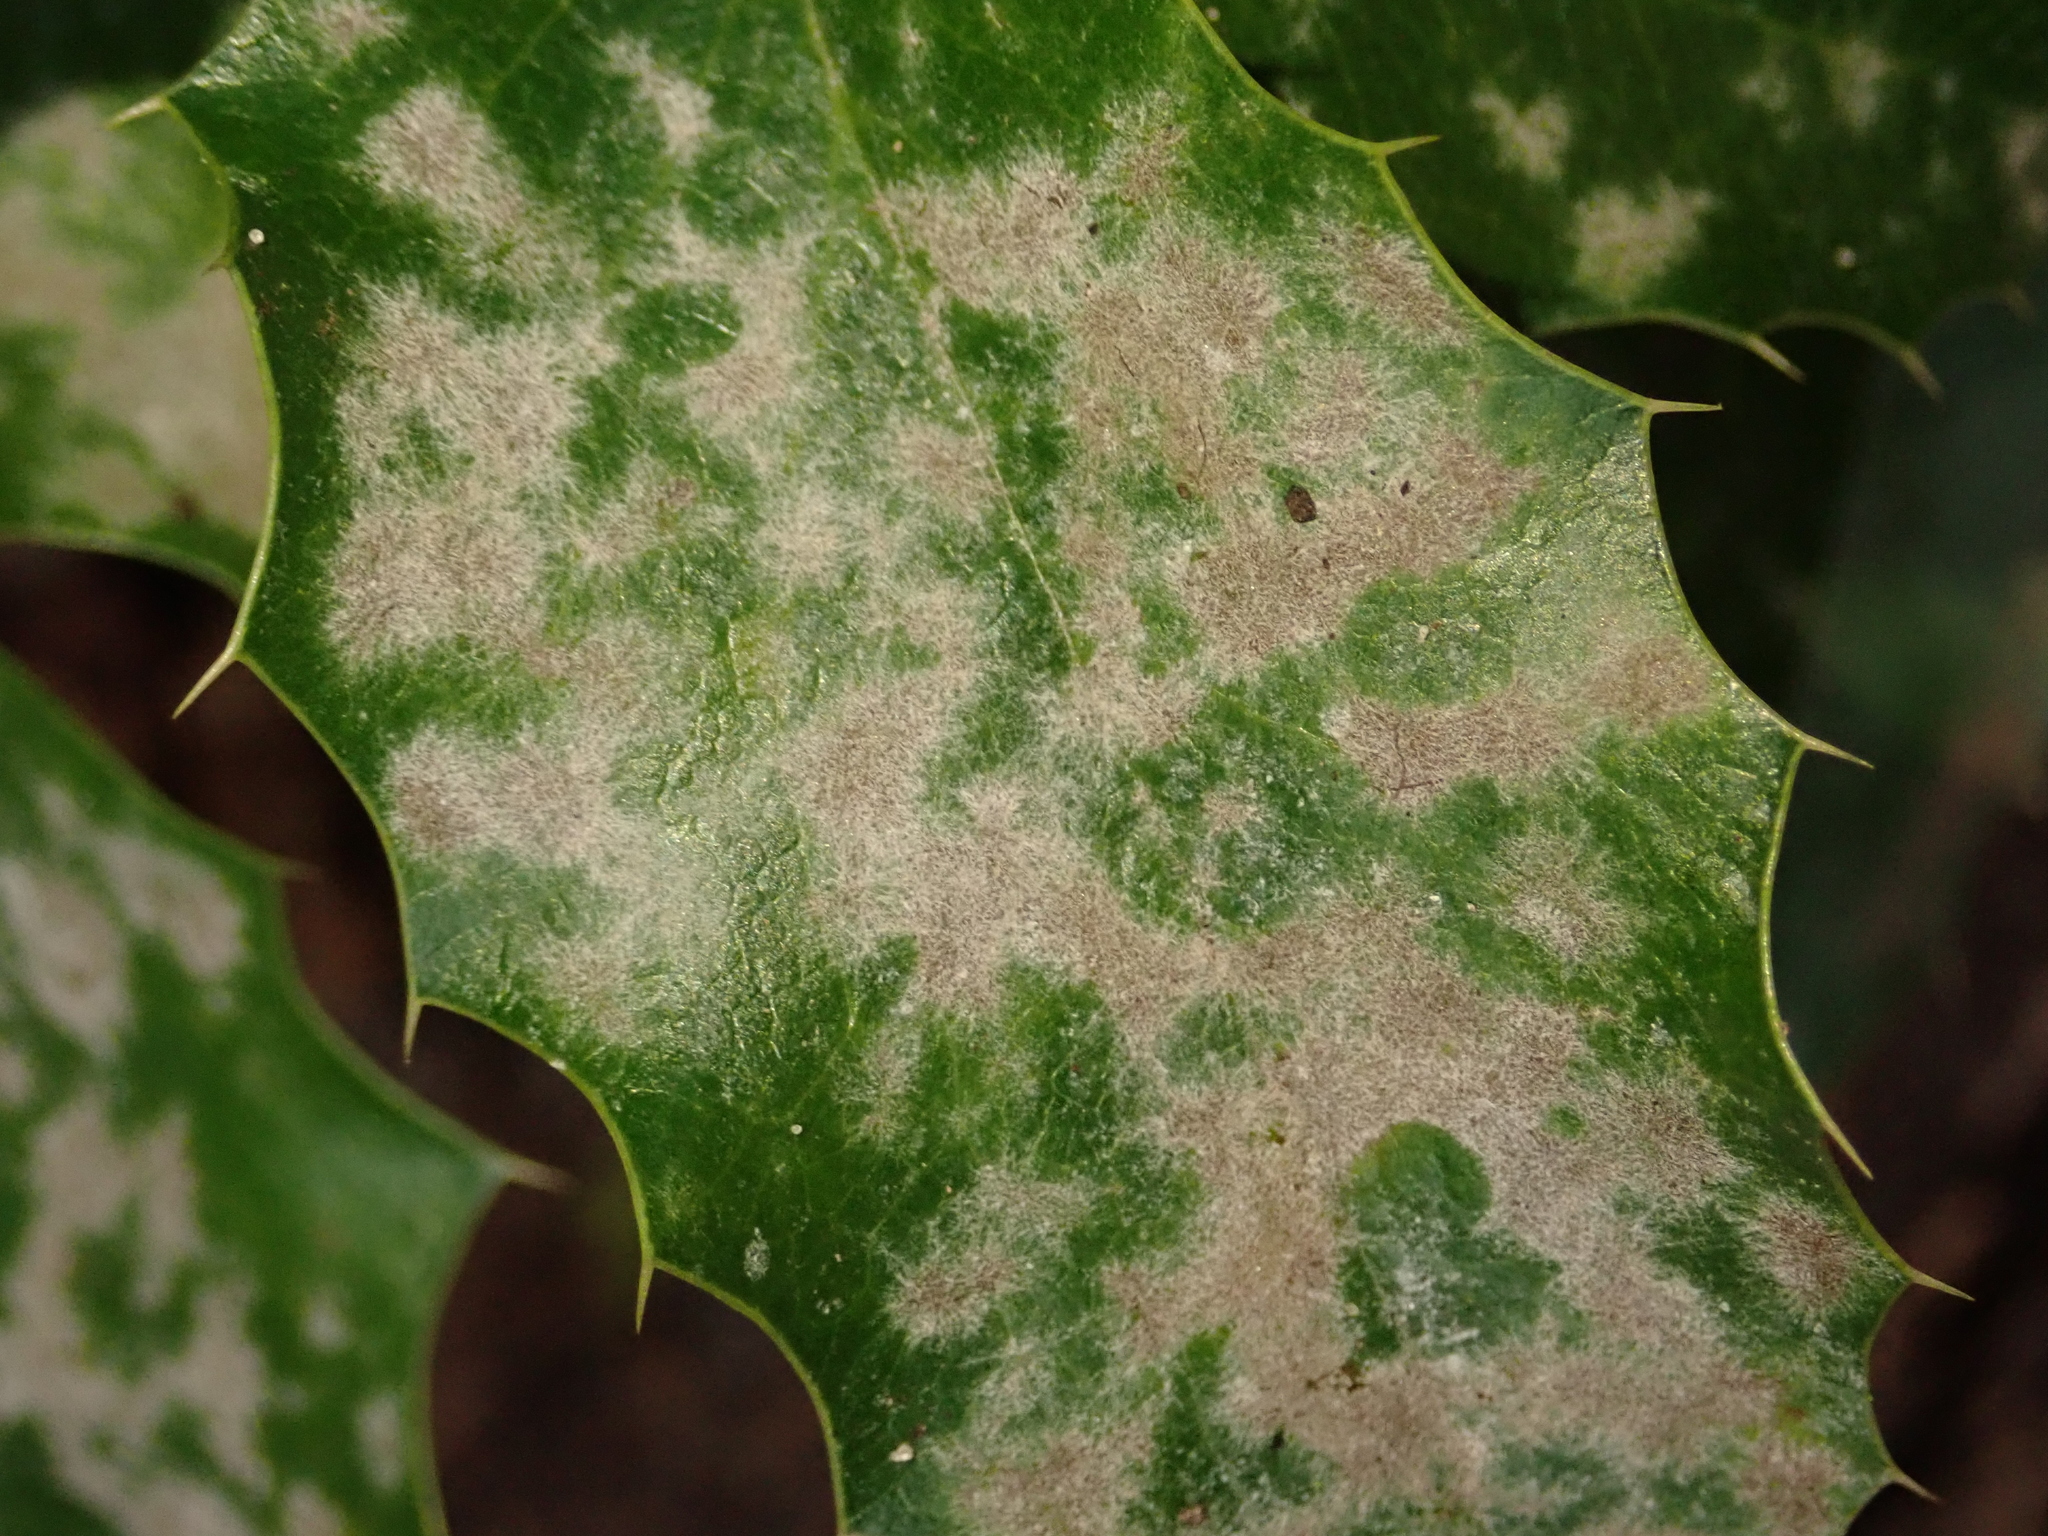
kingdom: Fungi
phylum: Ascomycota
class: Leotiomycetes
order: Helotiales
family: Erysiphaceae
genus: Erysiphe
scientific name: Erysiphe berberidis
